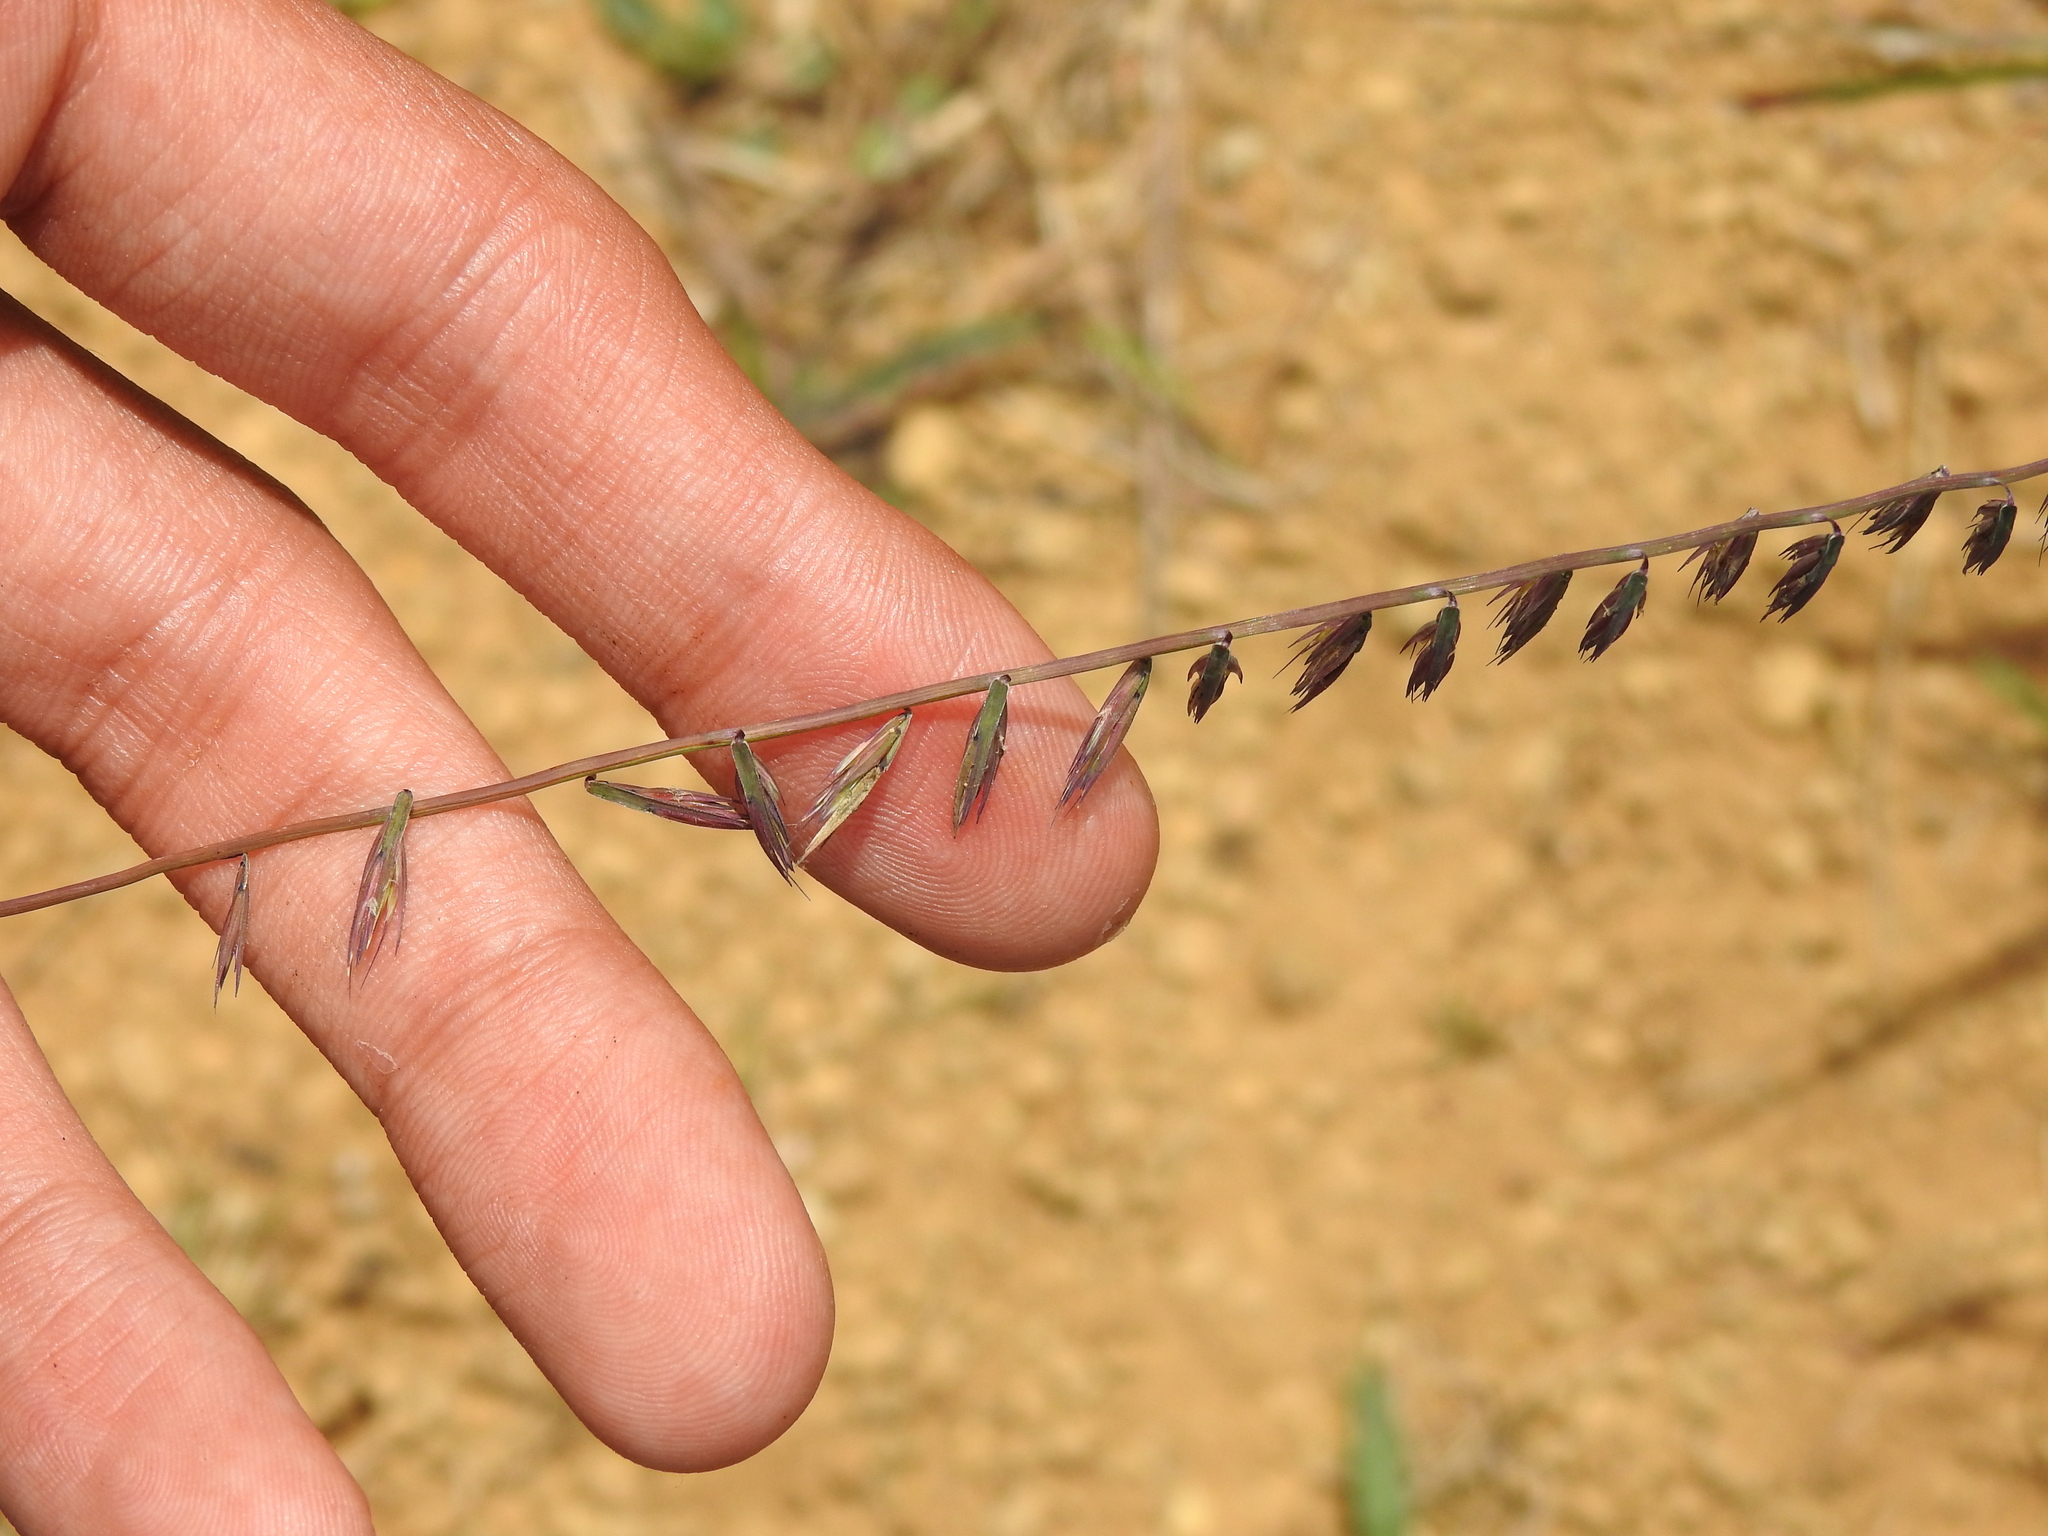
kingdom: Plantae
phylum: Tracheophyta
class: Liliopsida
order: Poales
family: Poaceae
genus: Bouteloua
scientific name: Bouteloua curtipendula
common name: Side-oats grama
